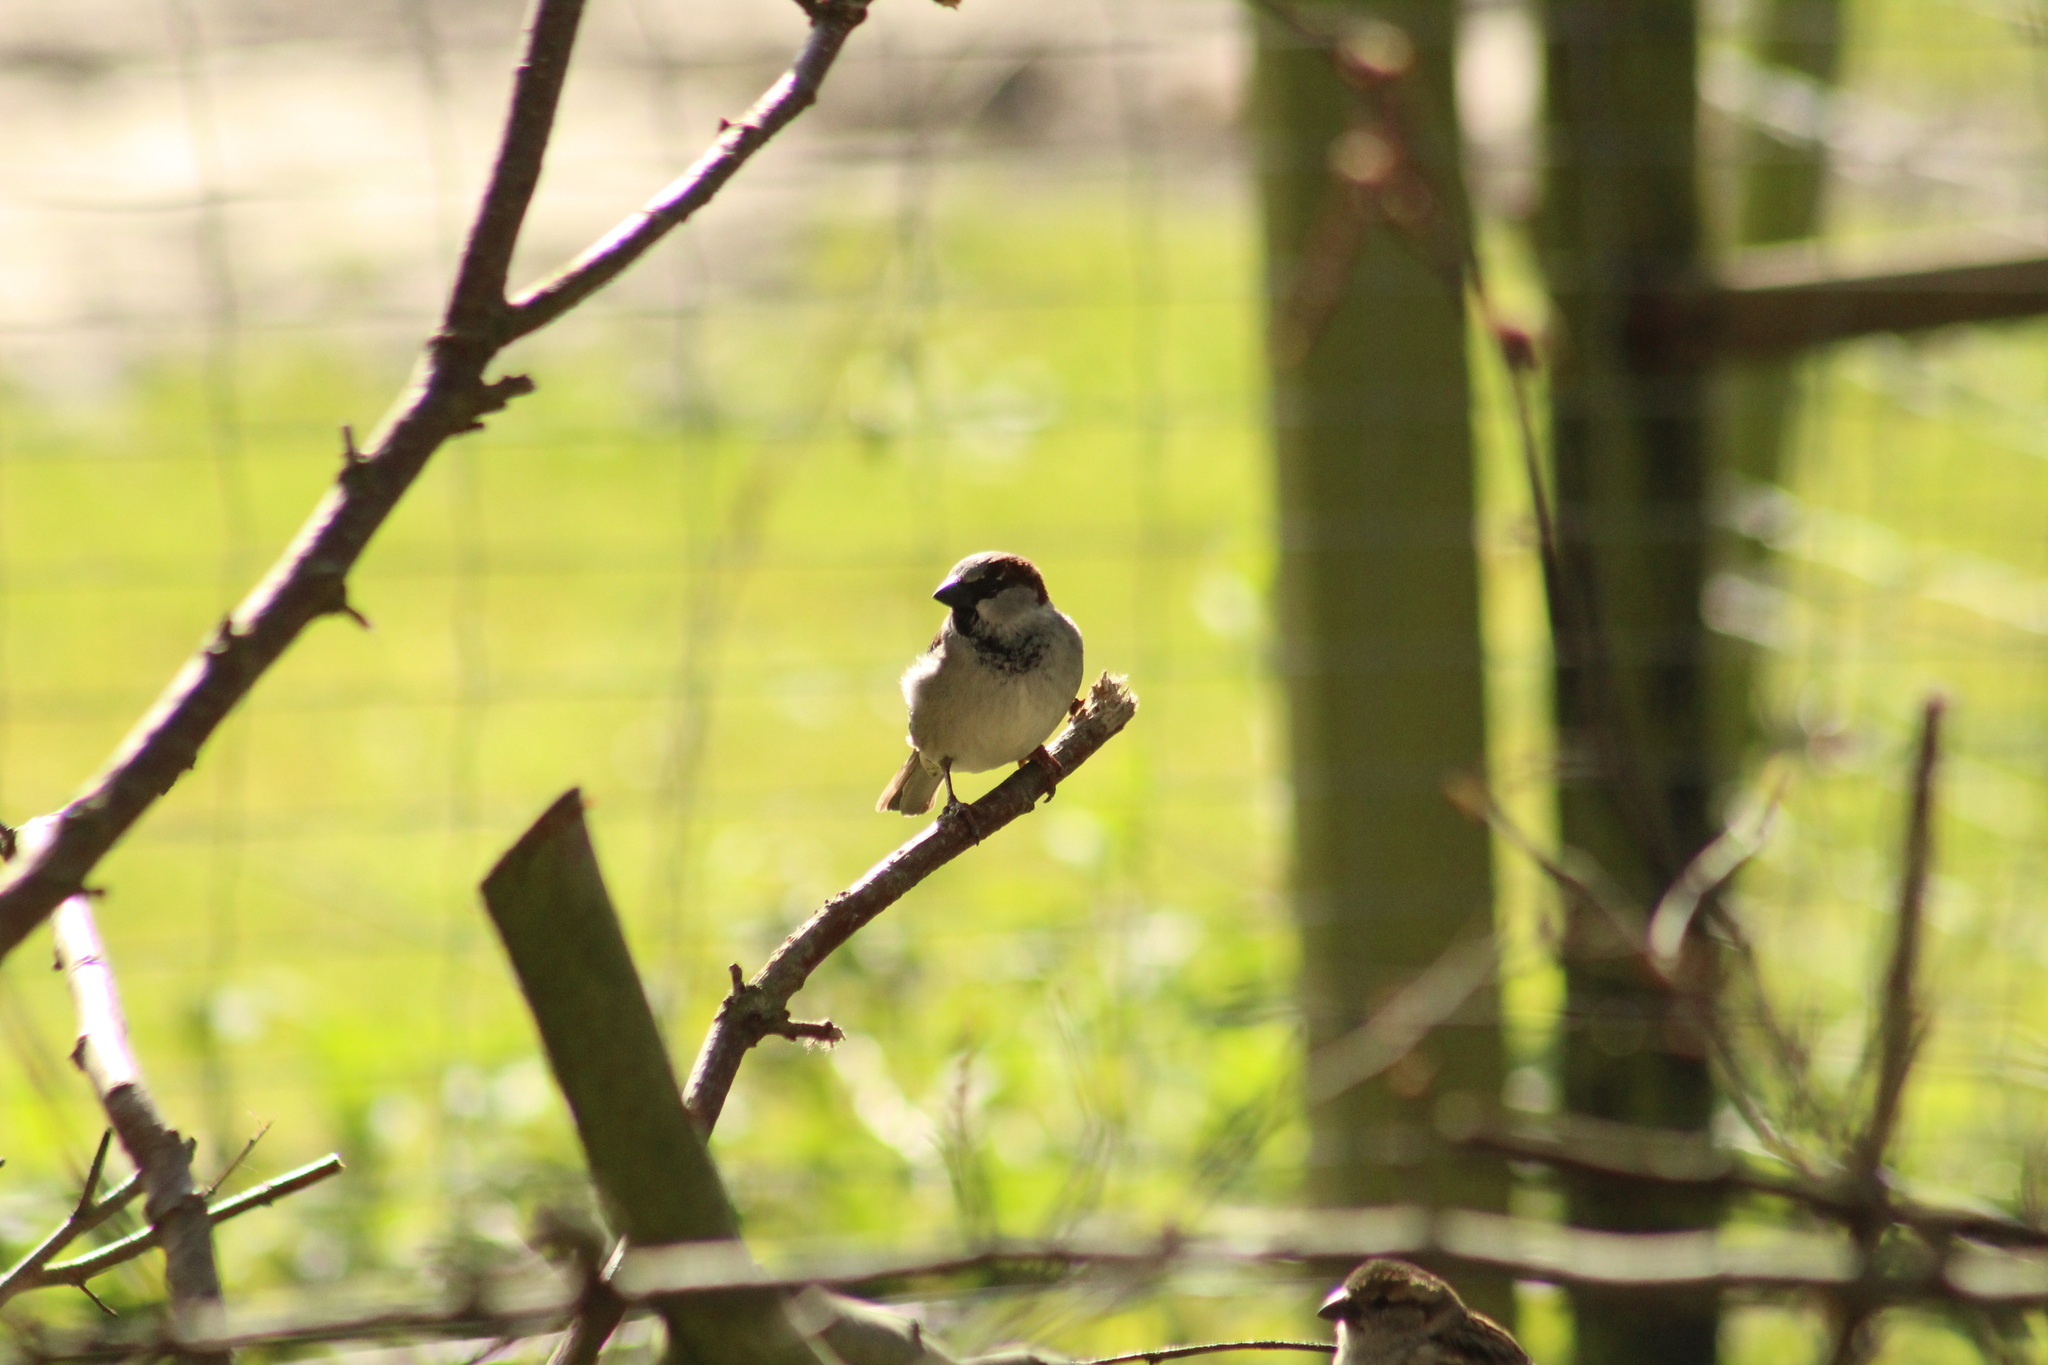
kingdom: Animalia
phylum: Chordata
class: Aves
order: Passeriformes
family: Passeridae
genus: Passer
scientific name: Passer domesticus
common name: House sparrow
